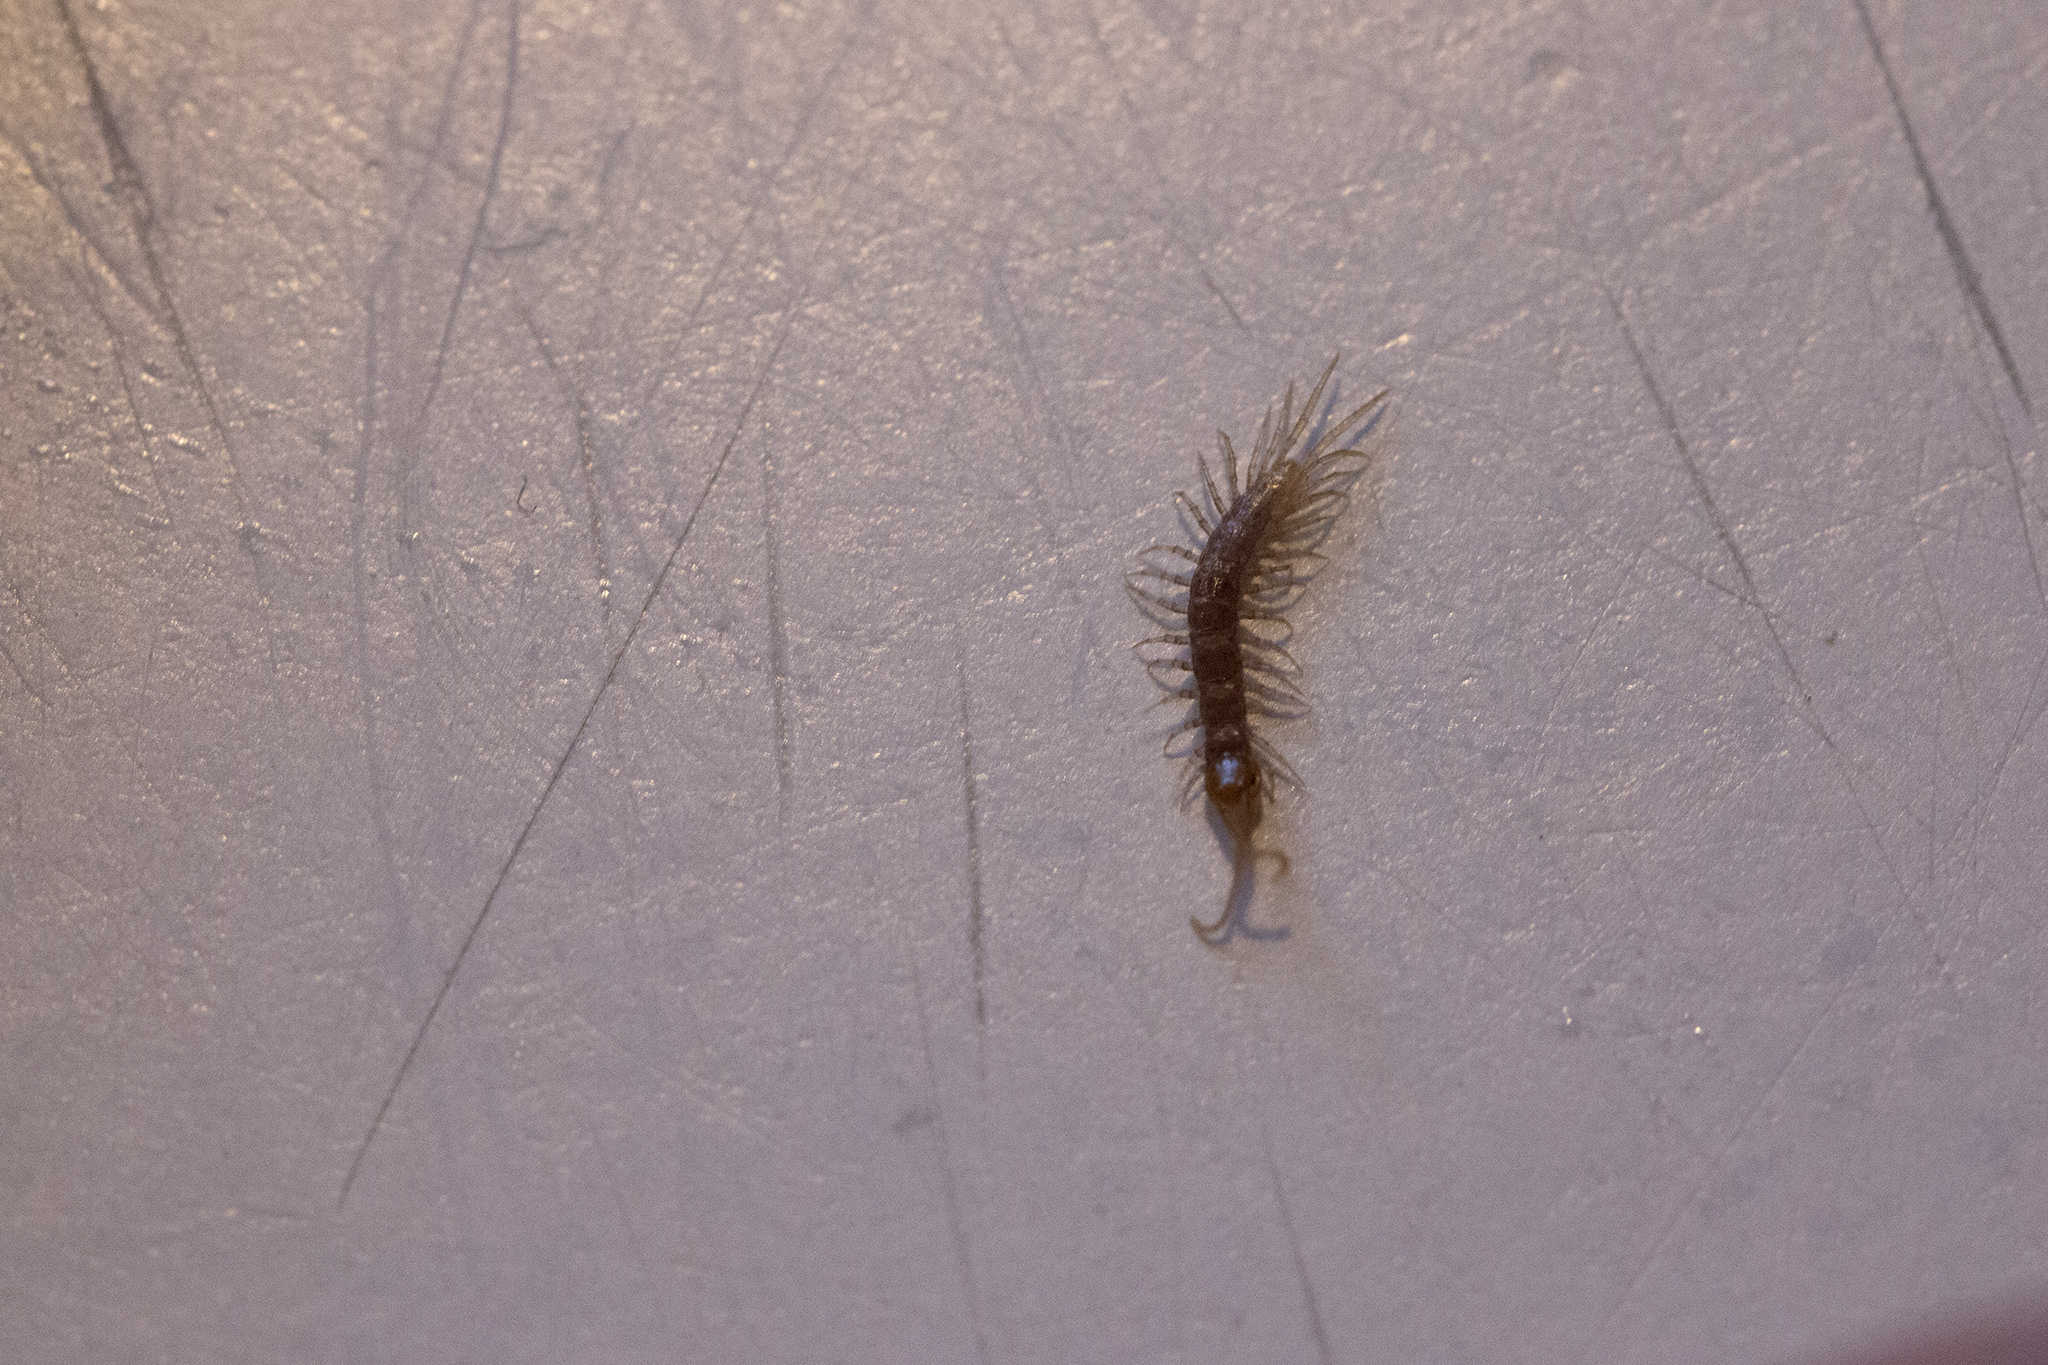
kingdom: Animalia
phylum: Arthropoda
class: Chilopoda
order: Lithobiomorpha
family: Lithobiidae
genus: Lithobius
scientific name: Lithobius forficatus
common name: Centipede
